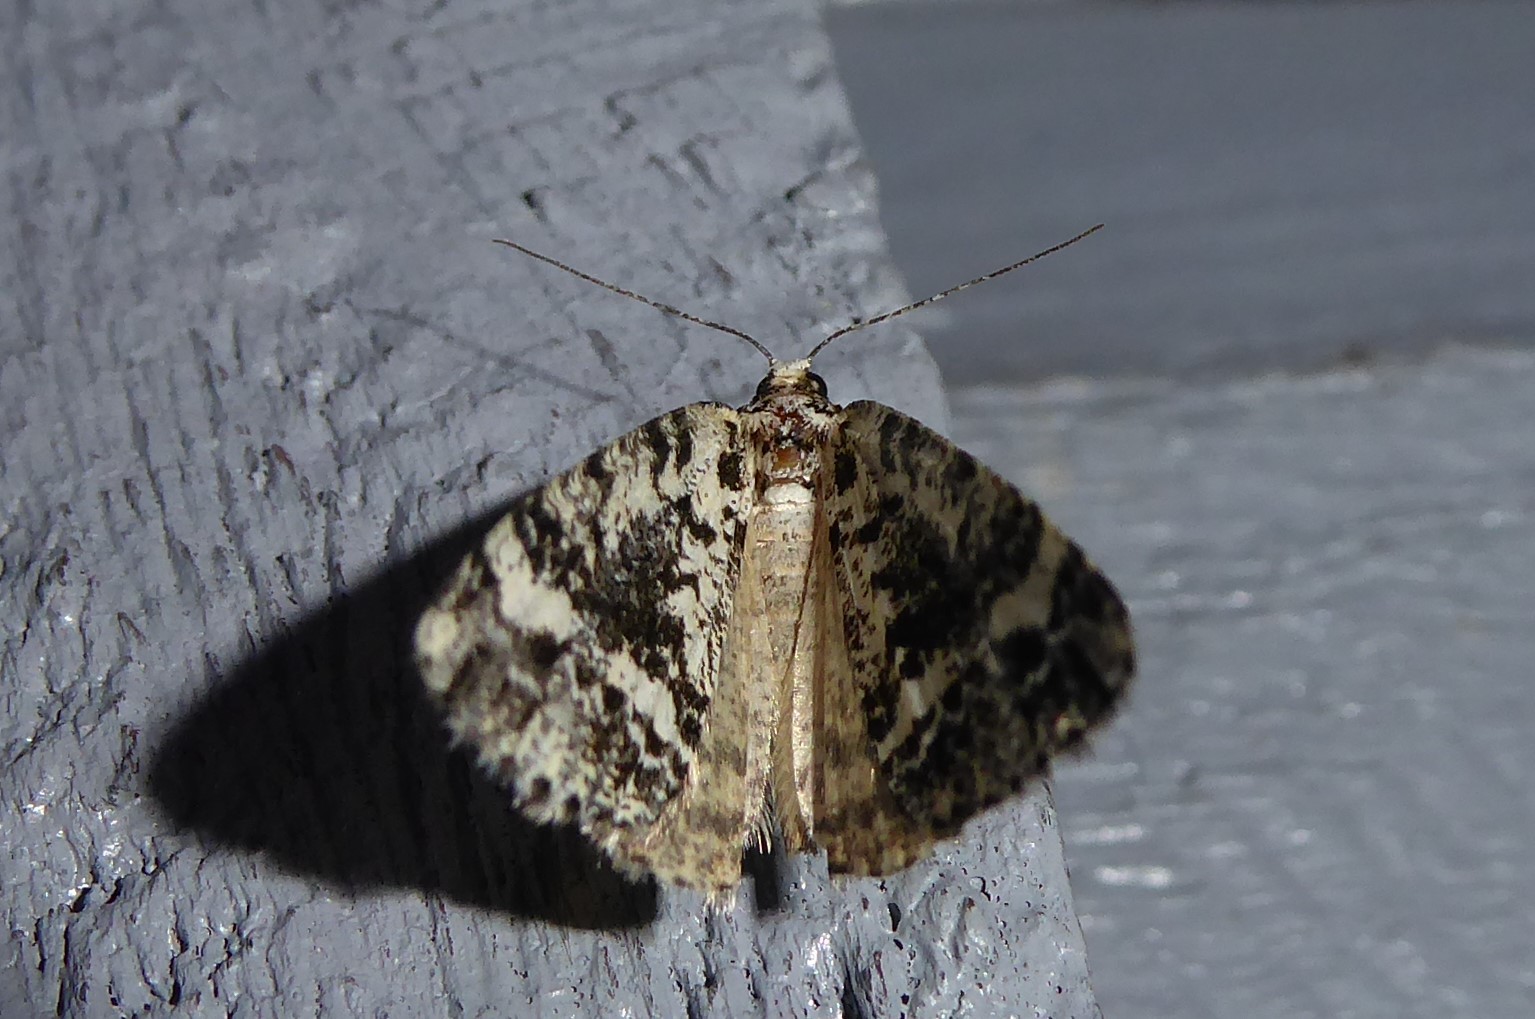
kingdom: Animalia
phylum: Arthropoda
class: Insecta
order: Lepidoptera
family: Geometridae
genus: Pseudocoremia
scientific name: Pseudocoremia leucelaea
